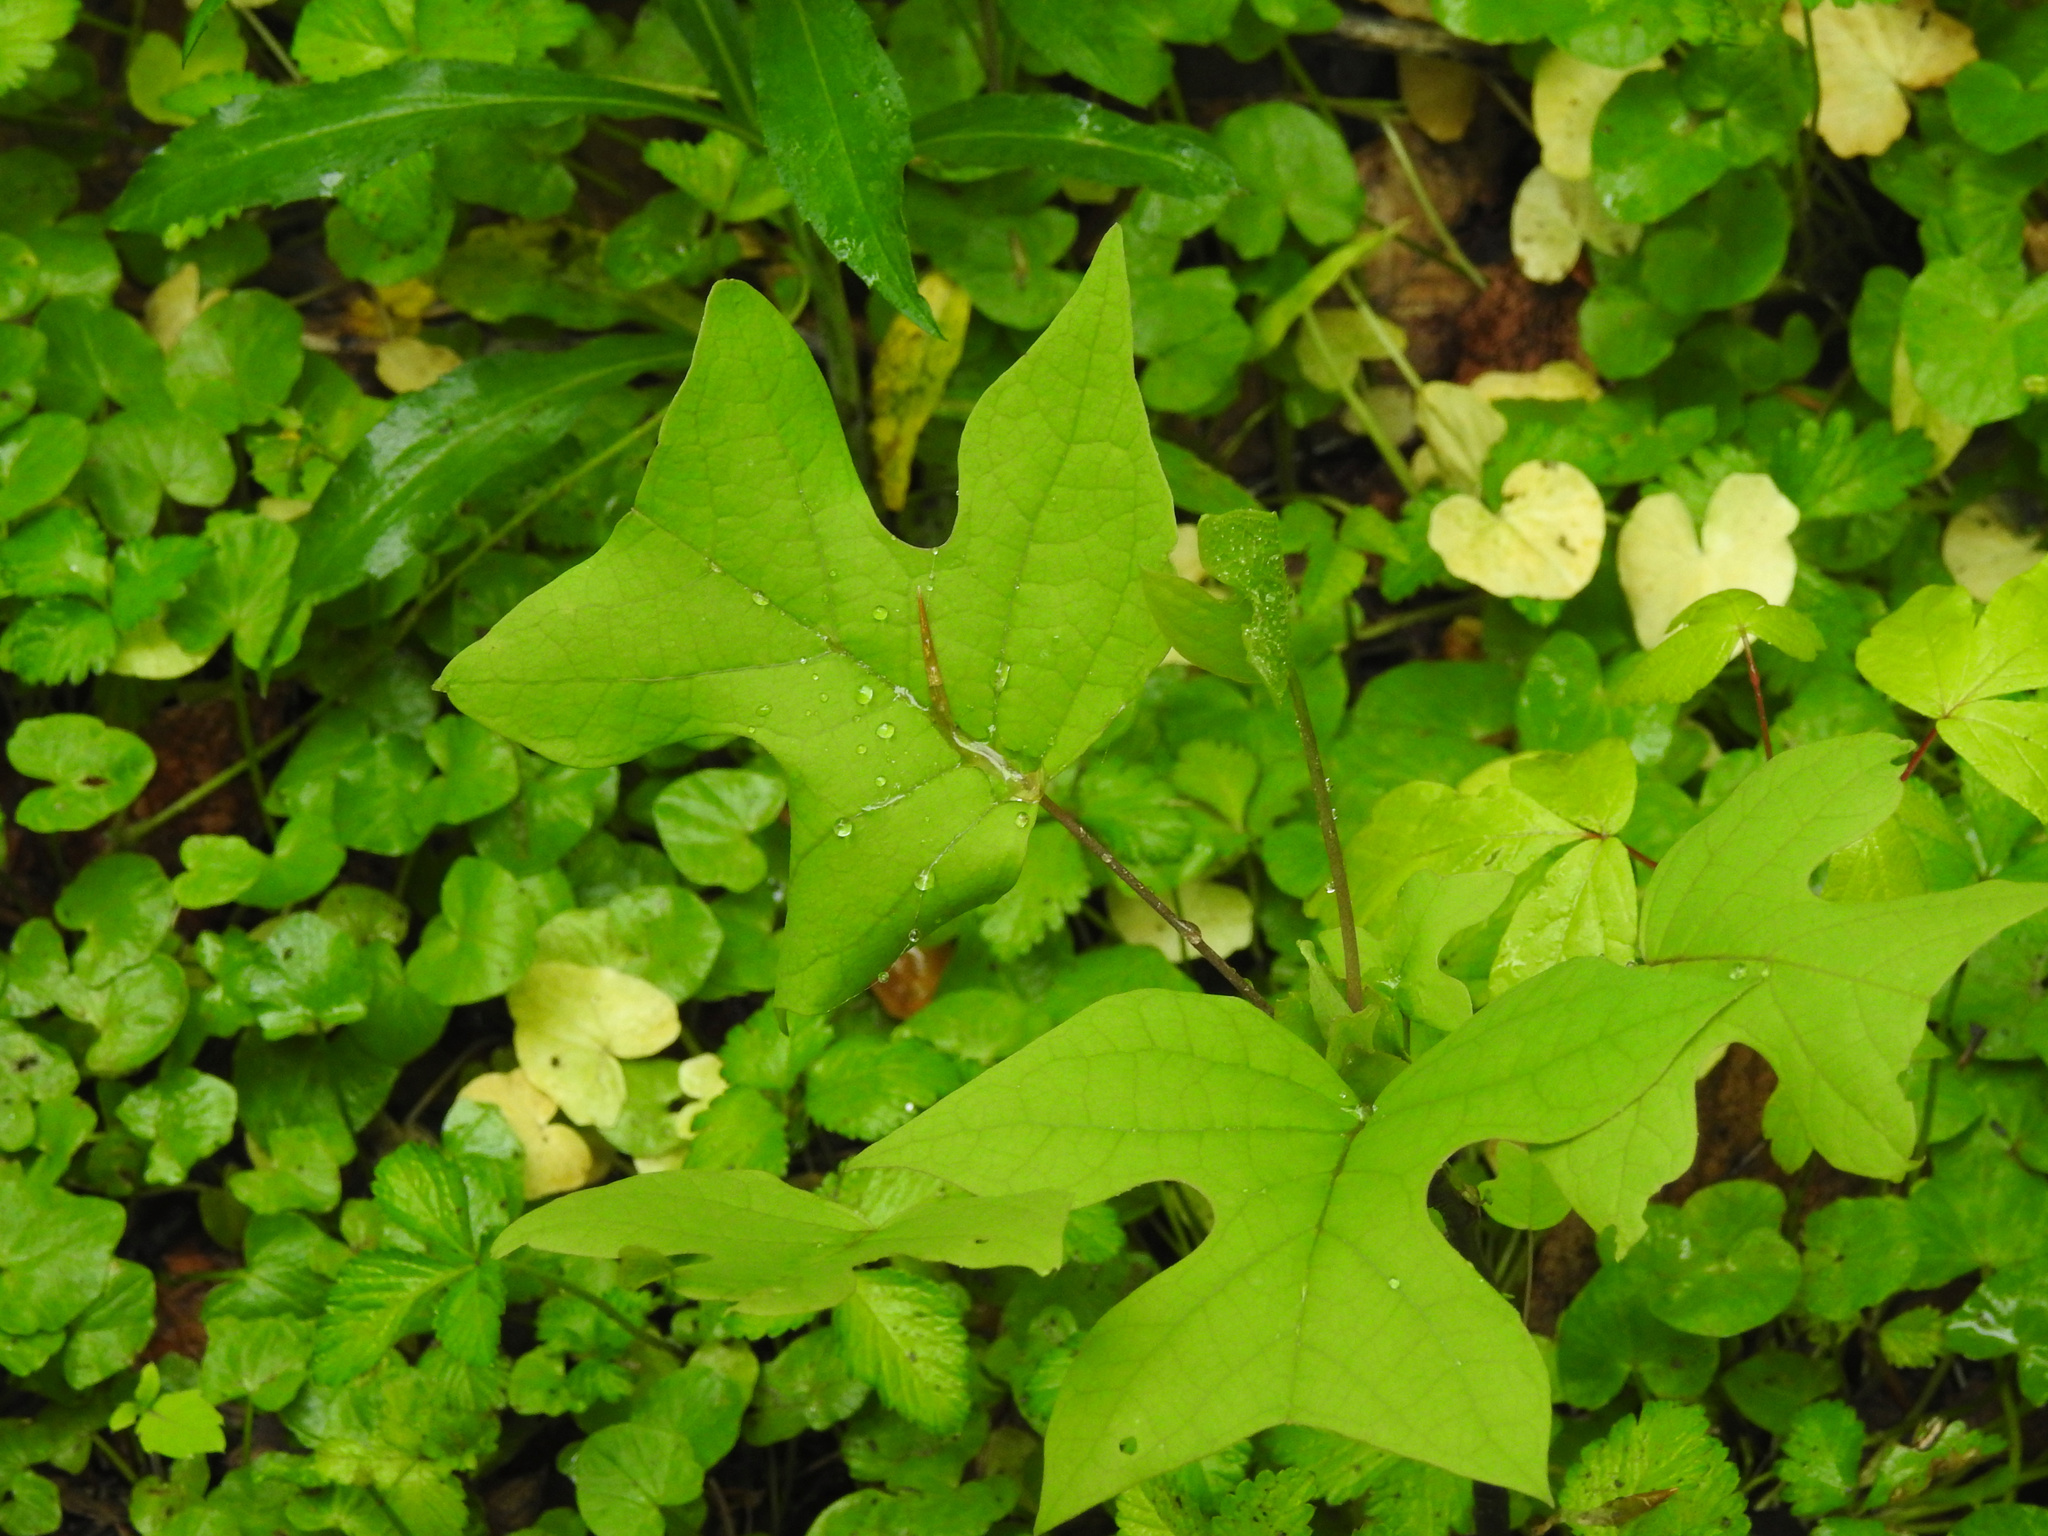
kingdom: Plantae
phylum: Tracheophyta
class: Magnoliopsida
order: Magnoliales
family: Magnoliaceae
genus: Liriodendron
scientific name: Liriodendron tulipifera
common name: Tulip tree
